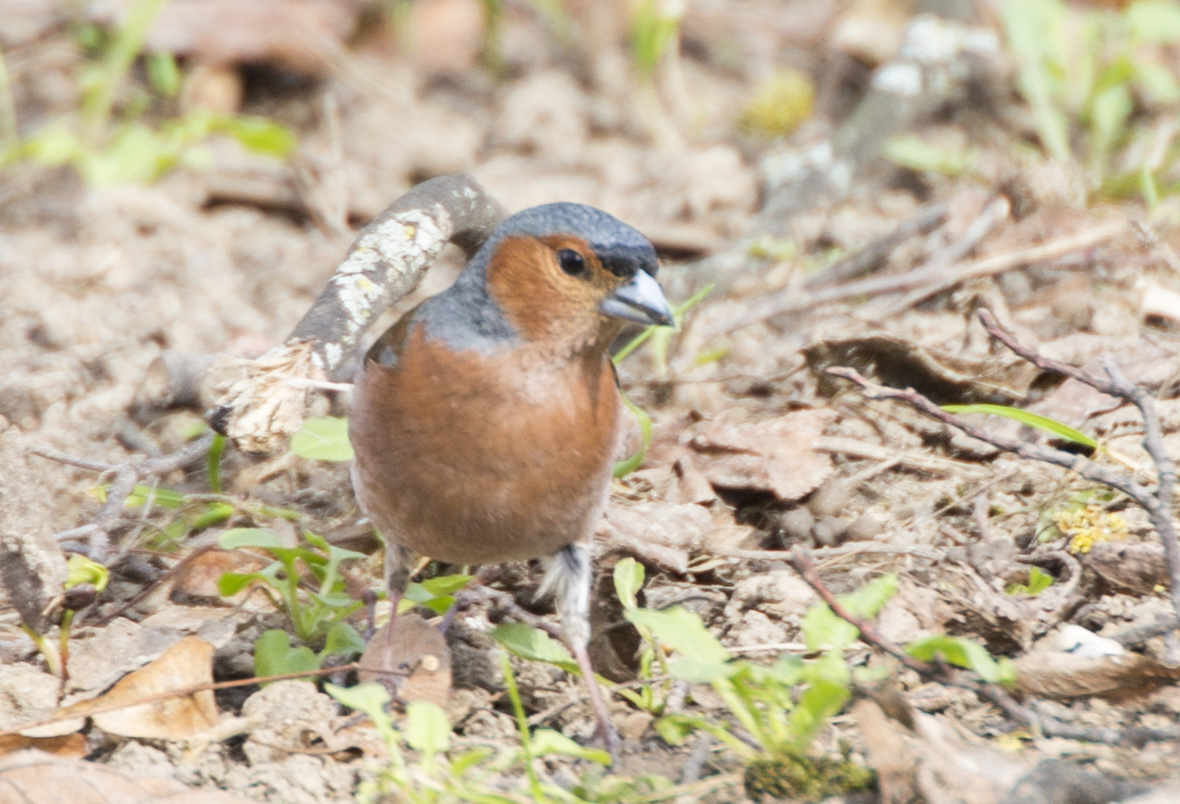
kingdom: Animalia
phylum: Chordata
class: Aves
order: Passeriformes
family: Fringillidae
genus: Fringilla
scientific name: Fringilla coelebs
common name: Common chaffinch
